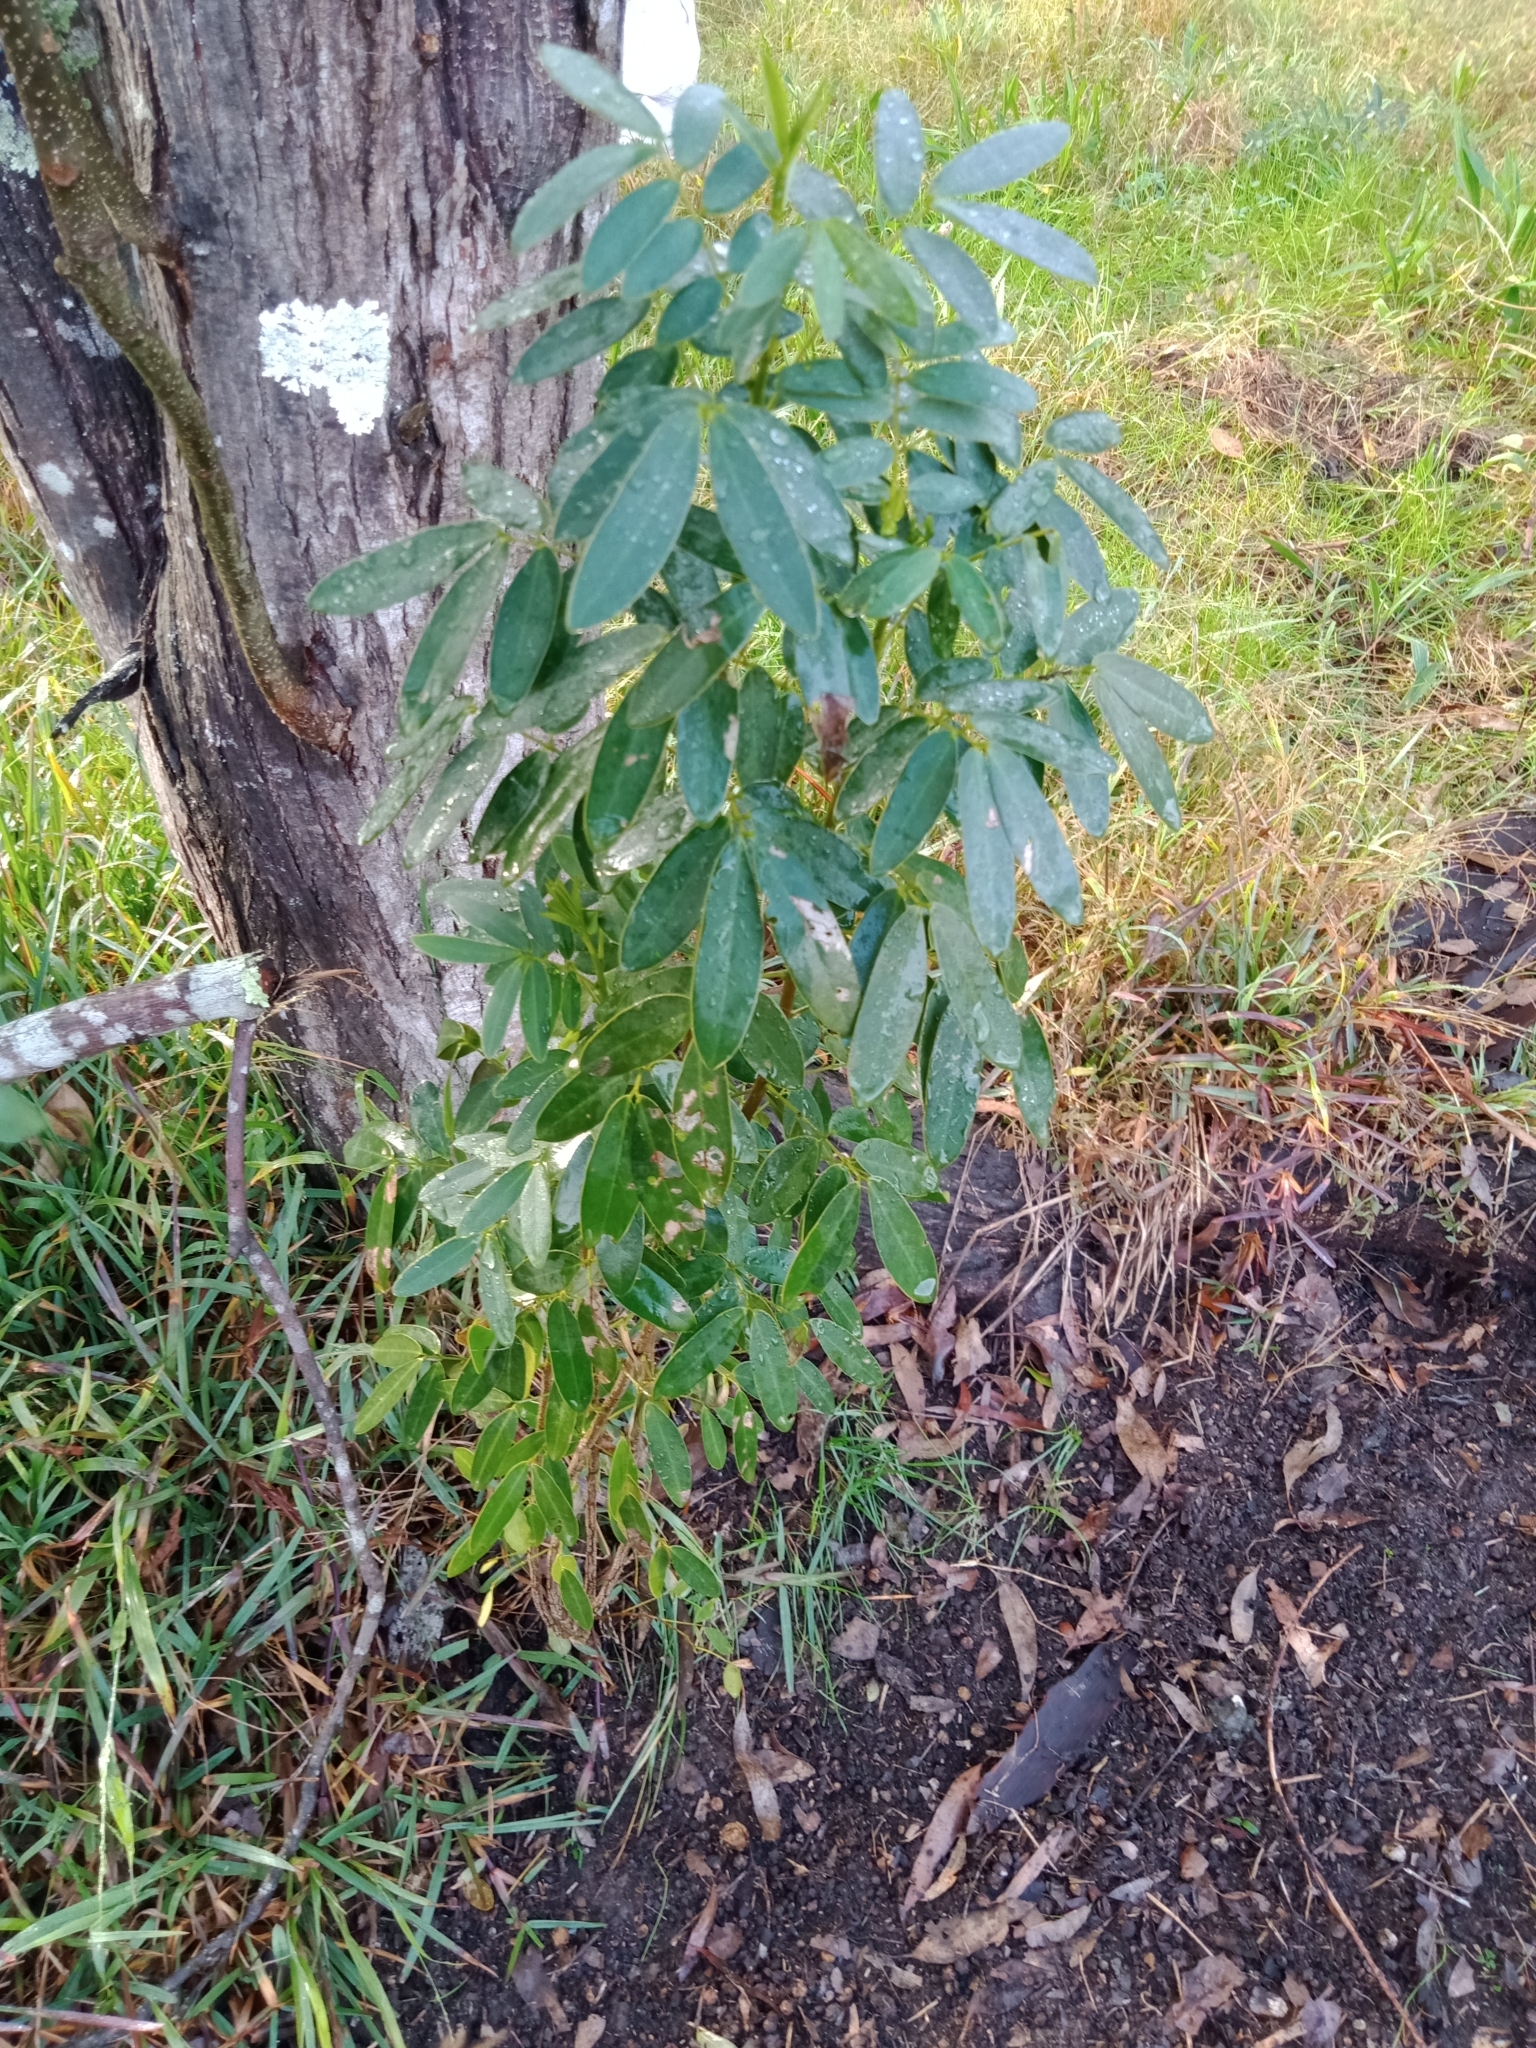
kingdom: Plantae
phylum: Tracheophyta
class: Magnoliopsida
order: Fabales
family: Fabaceae
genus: Senna
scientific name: Senna pendula
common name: Easter cassia
